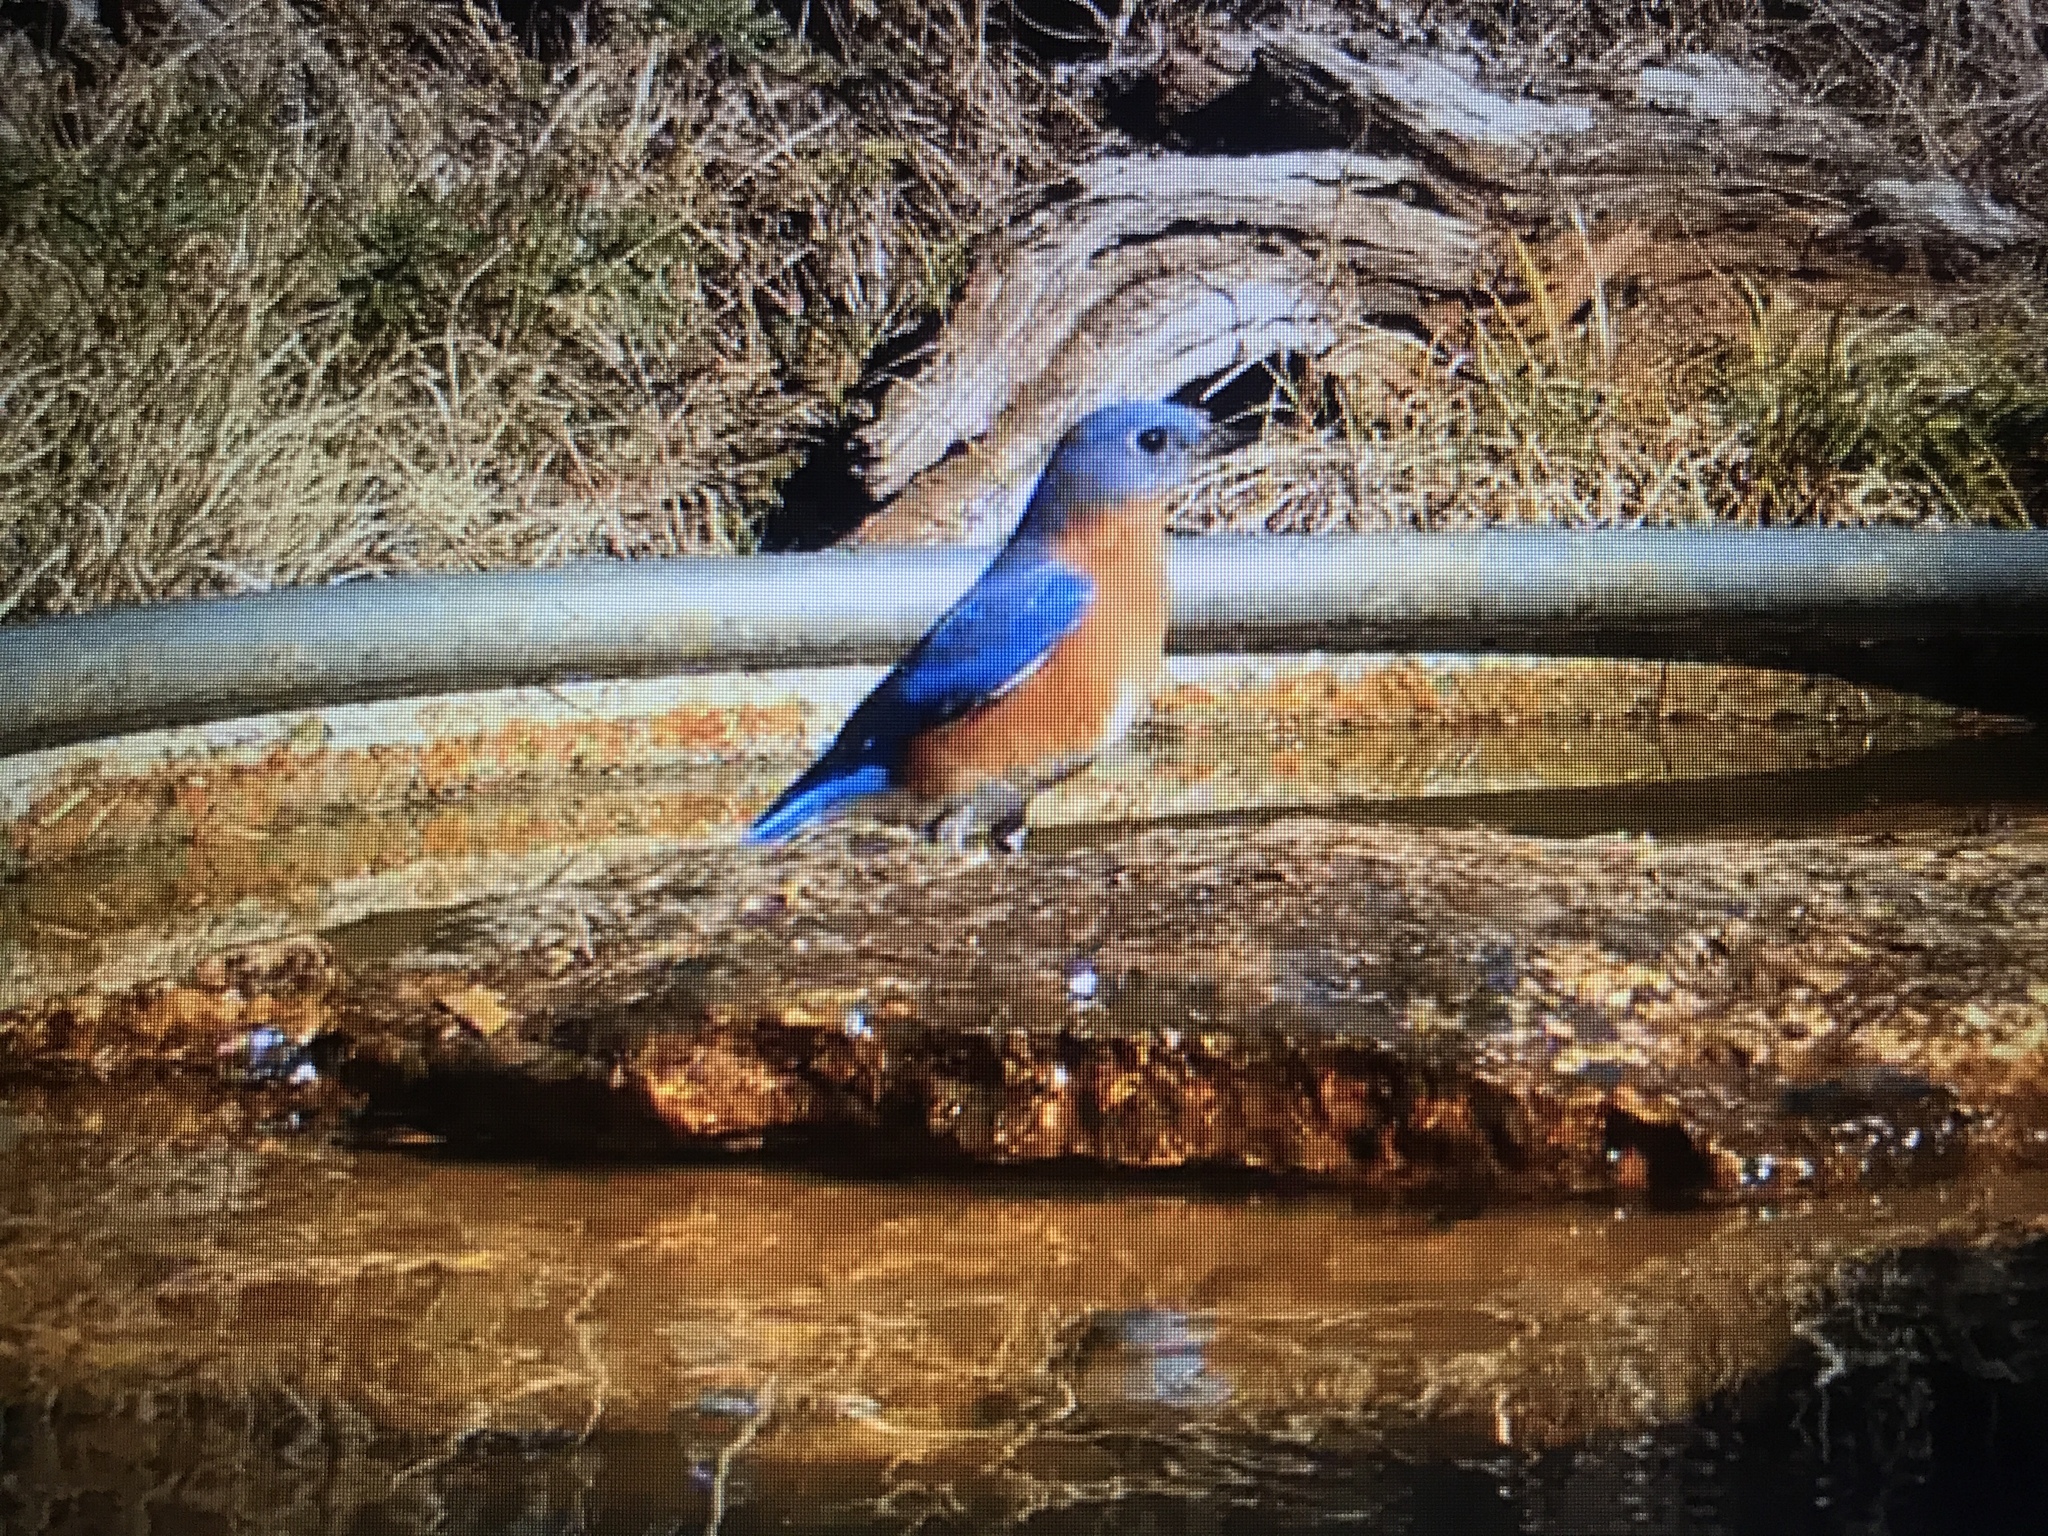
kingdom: Animalia
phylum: Chordata
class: Aves
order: Passeriformes
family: Turdidae
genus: Sialia
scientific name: Sialia sialis
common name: Eastern bluebird
